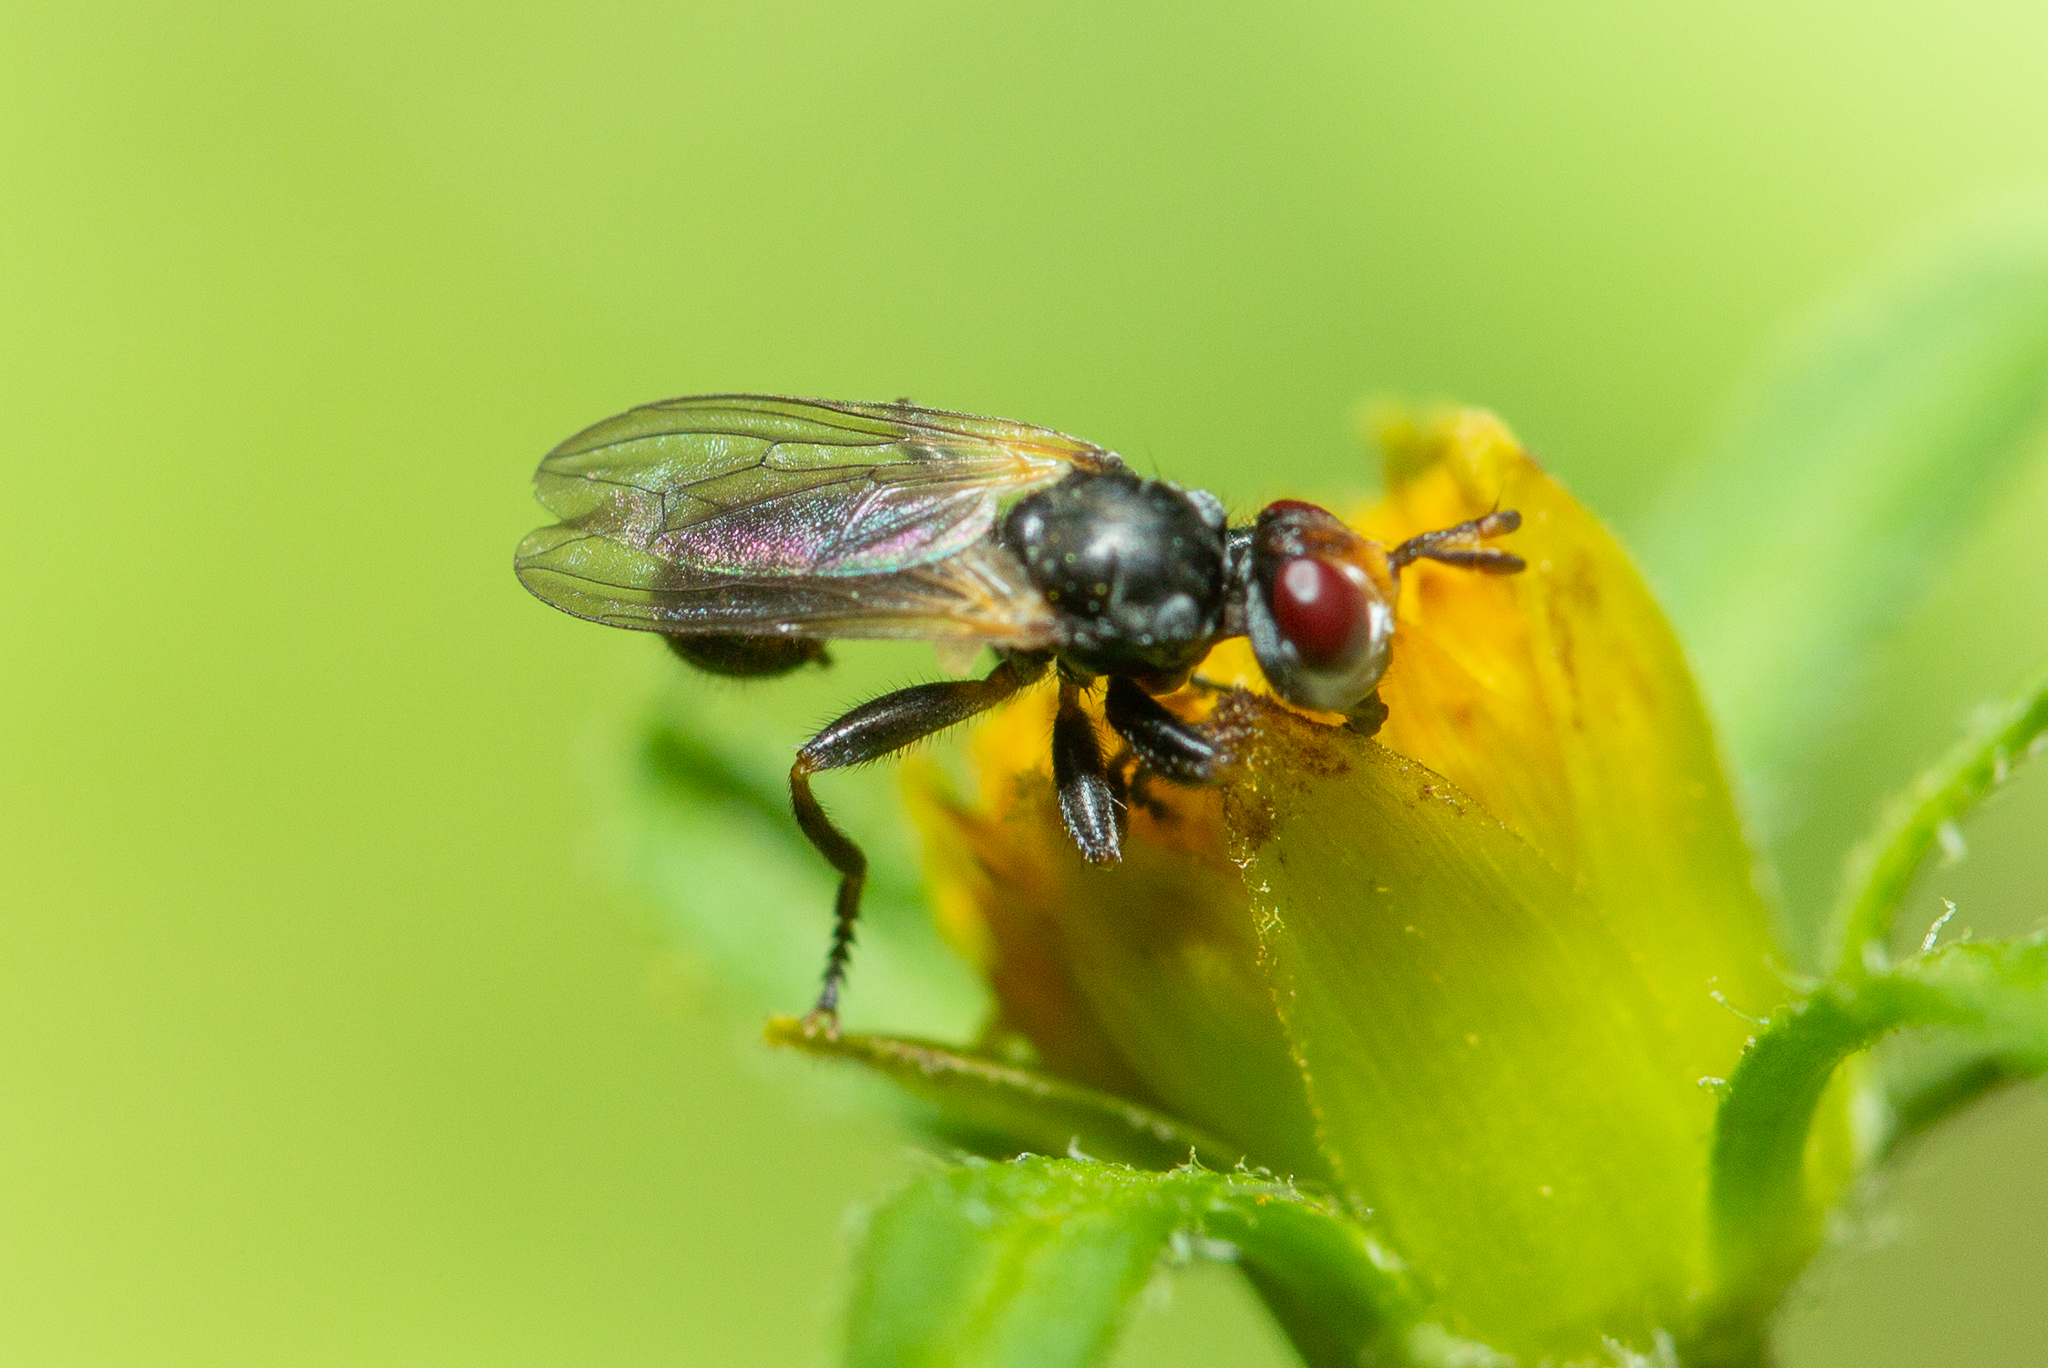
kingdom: Animalia
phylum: Arthropoda
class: Insecta
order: Diptera
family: Conopidae
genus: Thecophora
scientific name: Thecophora propinqua
